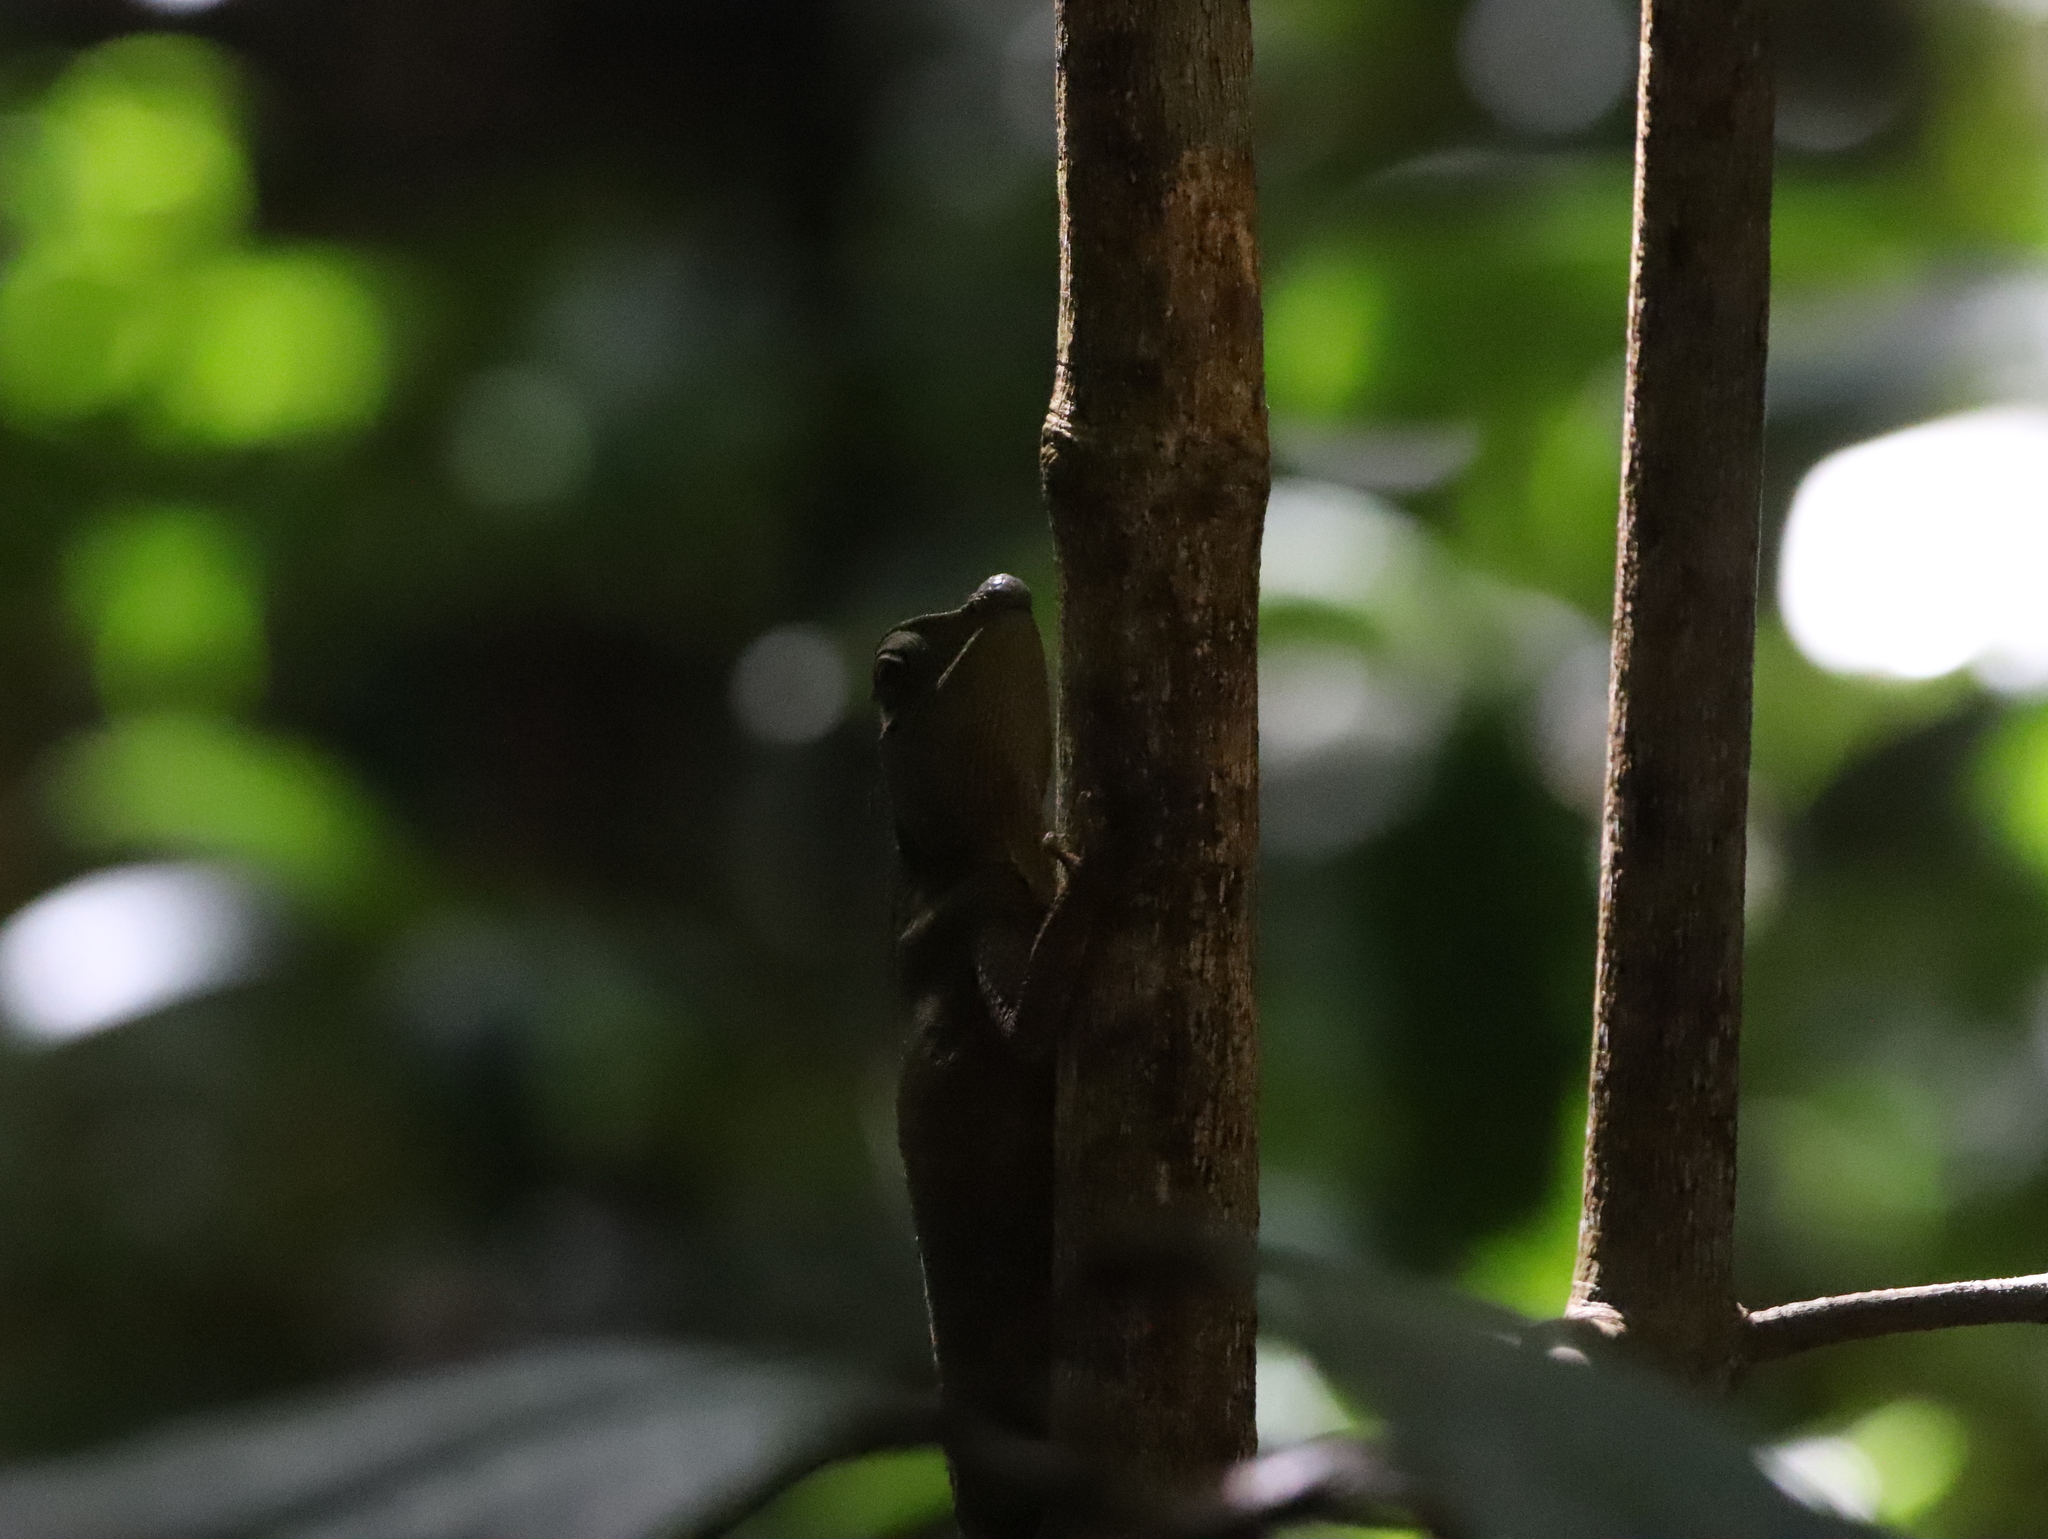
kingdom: Animalia
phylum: Chordata
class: Squamata
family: Agamidae
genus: Lyriocephalus
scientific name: Lyriocephalus scutatus
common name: Hump snout lizard
